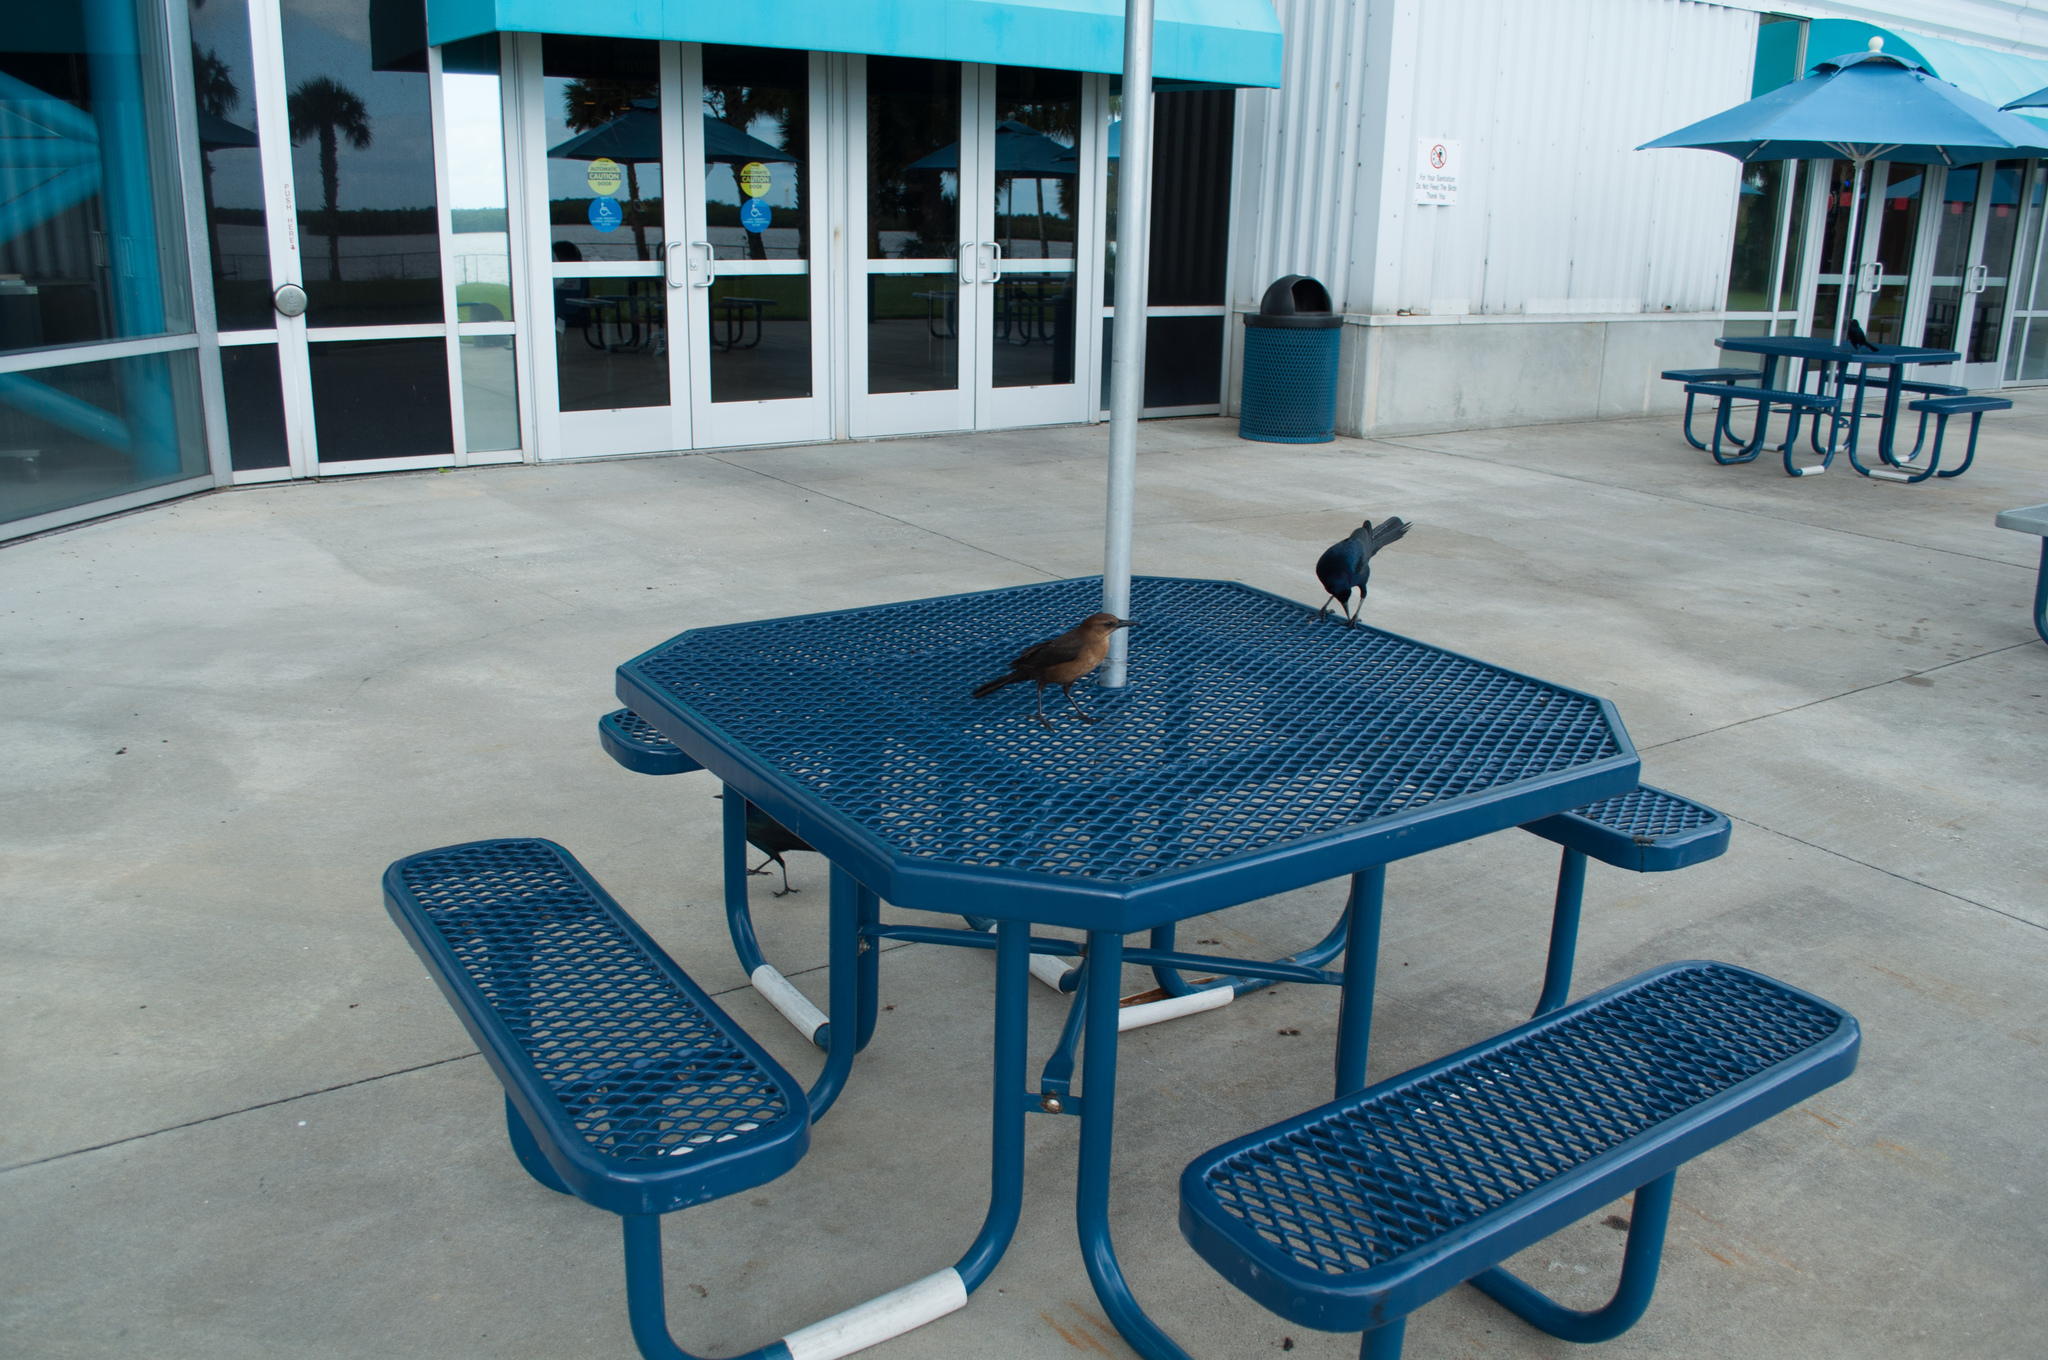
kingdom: Animalia
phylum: Chordata
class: Aves
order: Passeriformes
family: Icteridae
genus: Quiscalus
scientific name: Quiscalus major
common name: Boat-tailed grackle
